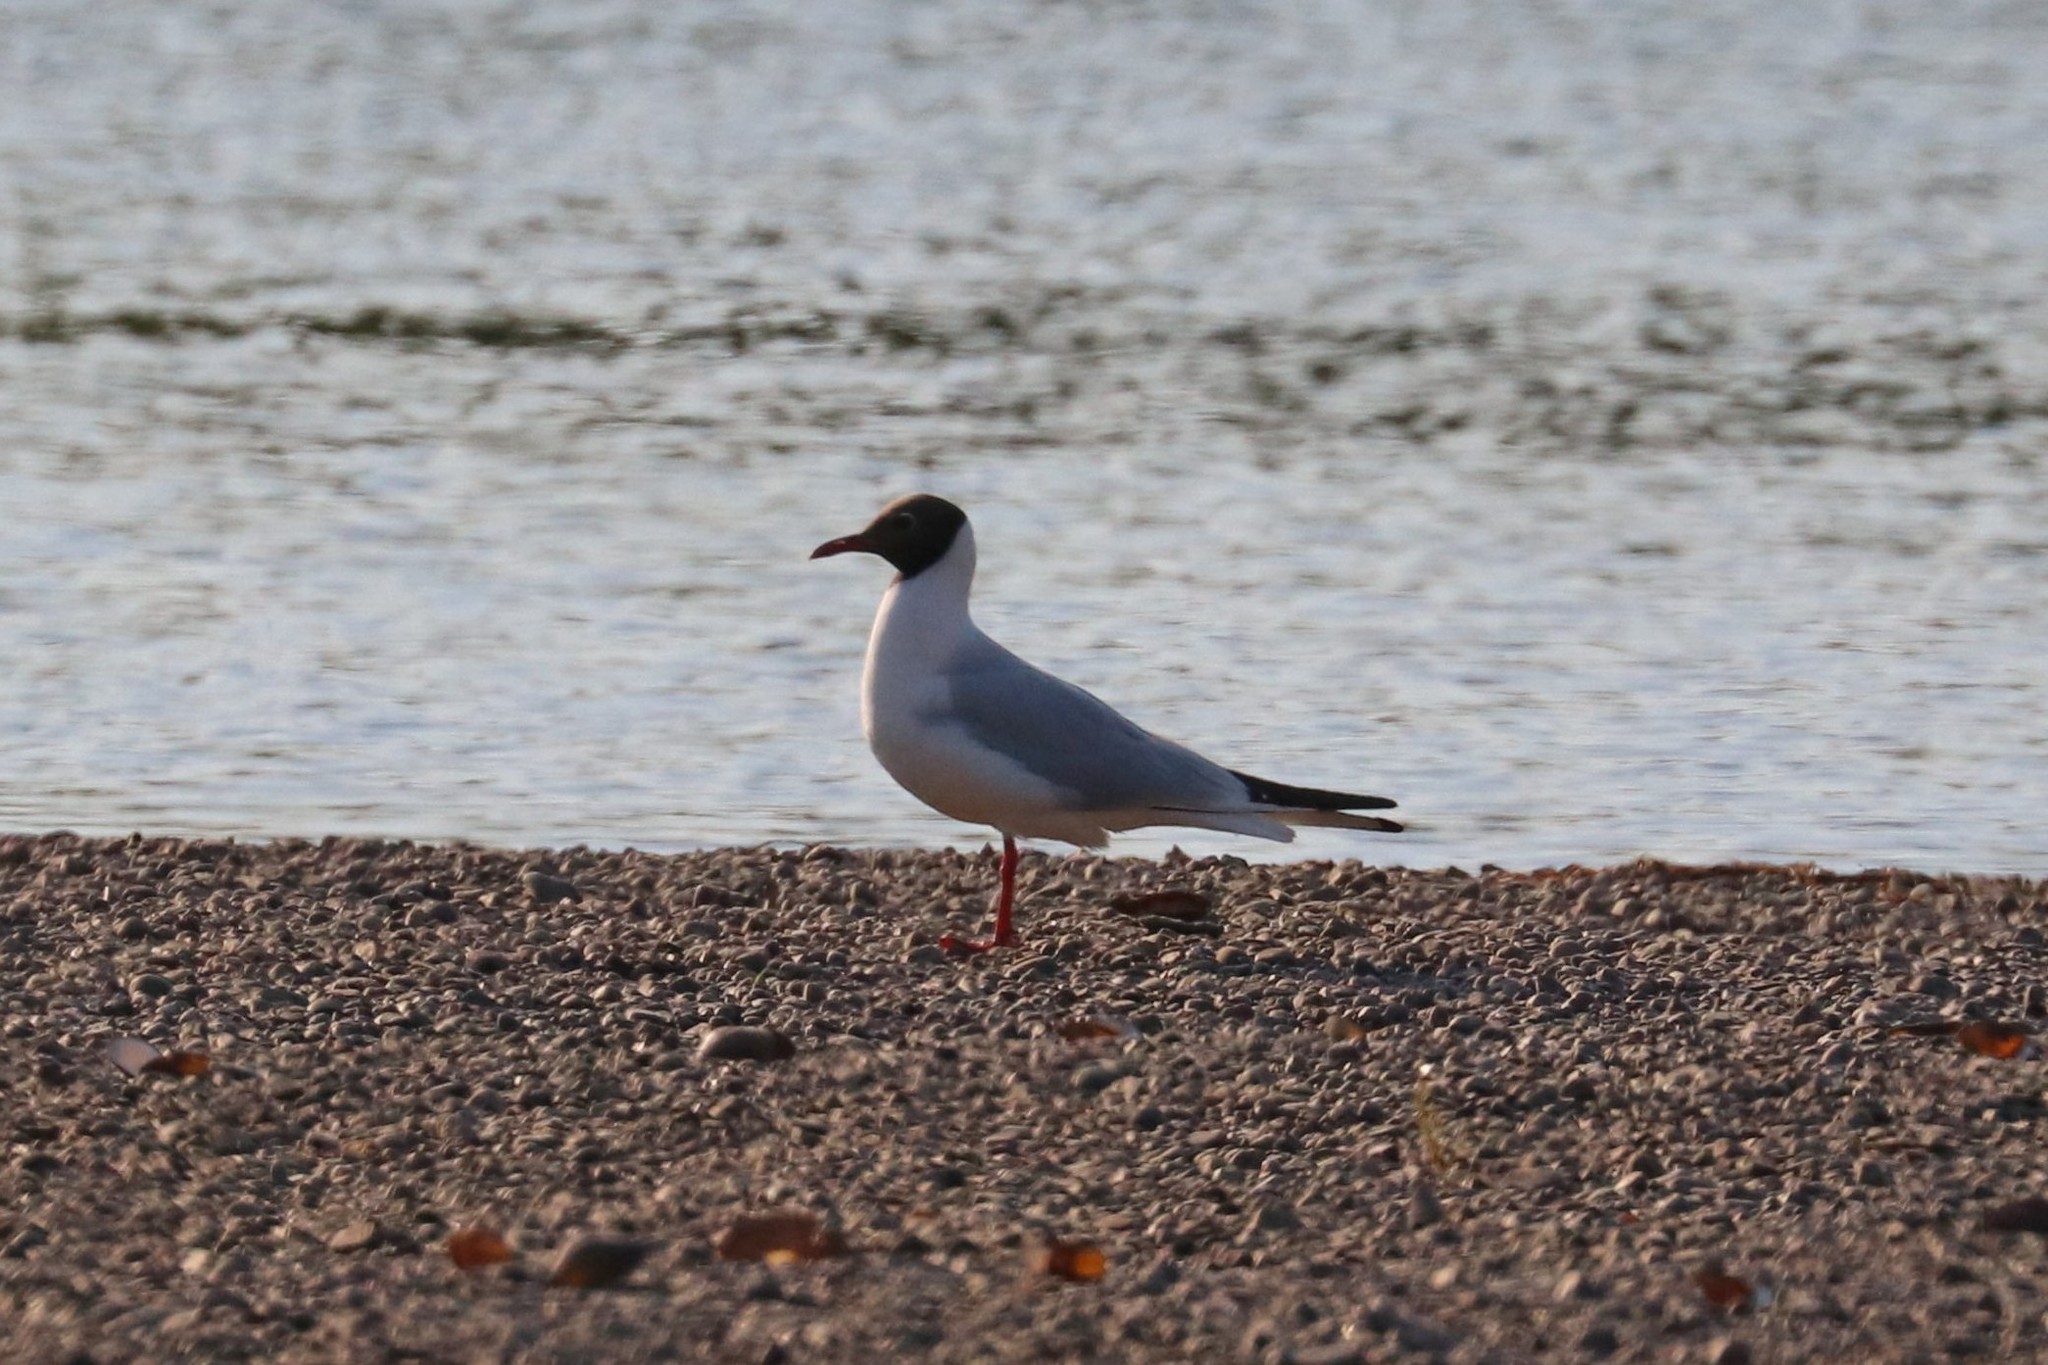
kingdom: Animalia
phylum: Chordata
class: Aves
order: Charadriiformes
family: Laridae
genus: Chroicocephalus
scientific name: Chroicocephalus ridibundus
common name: Black-headed gull
